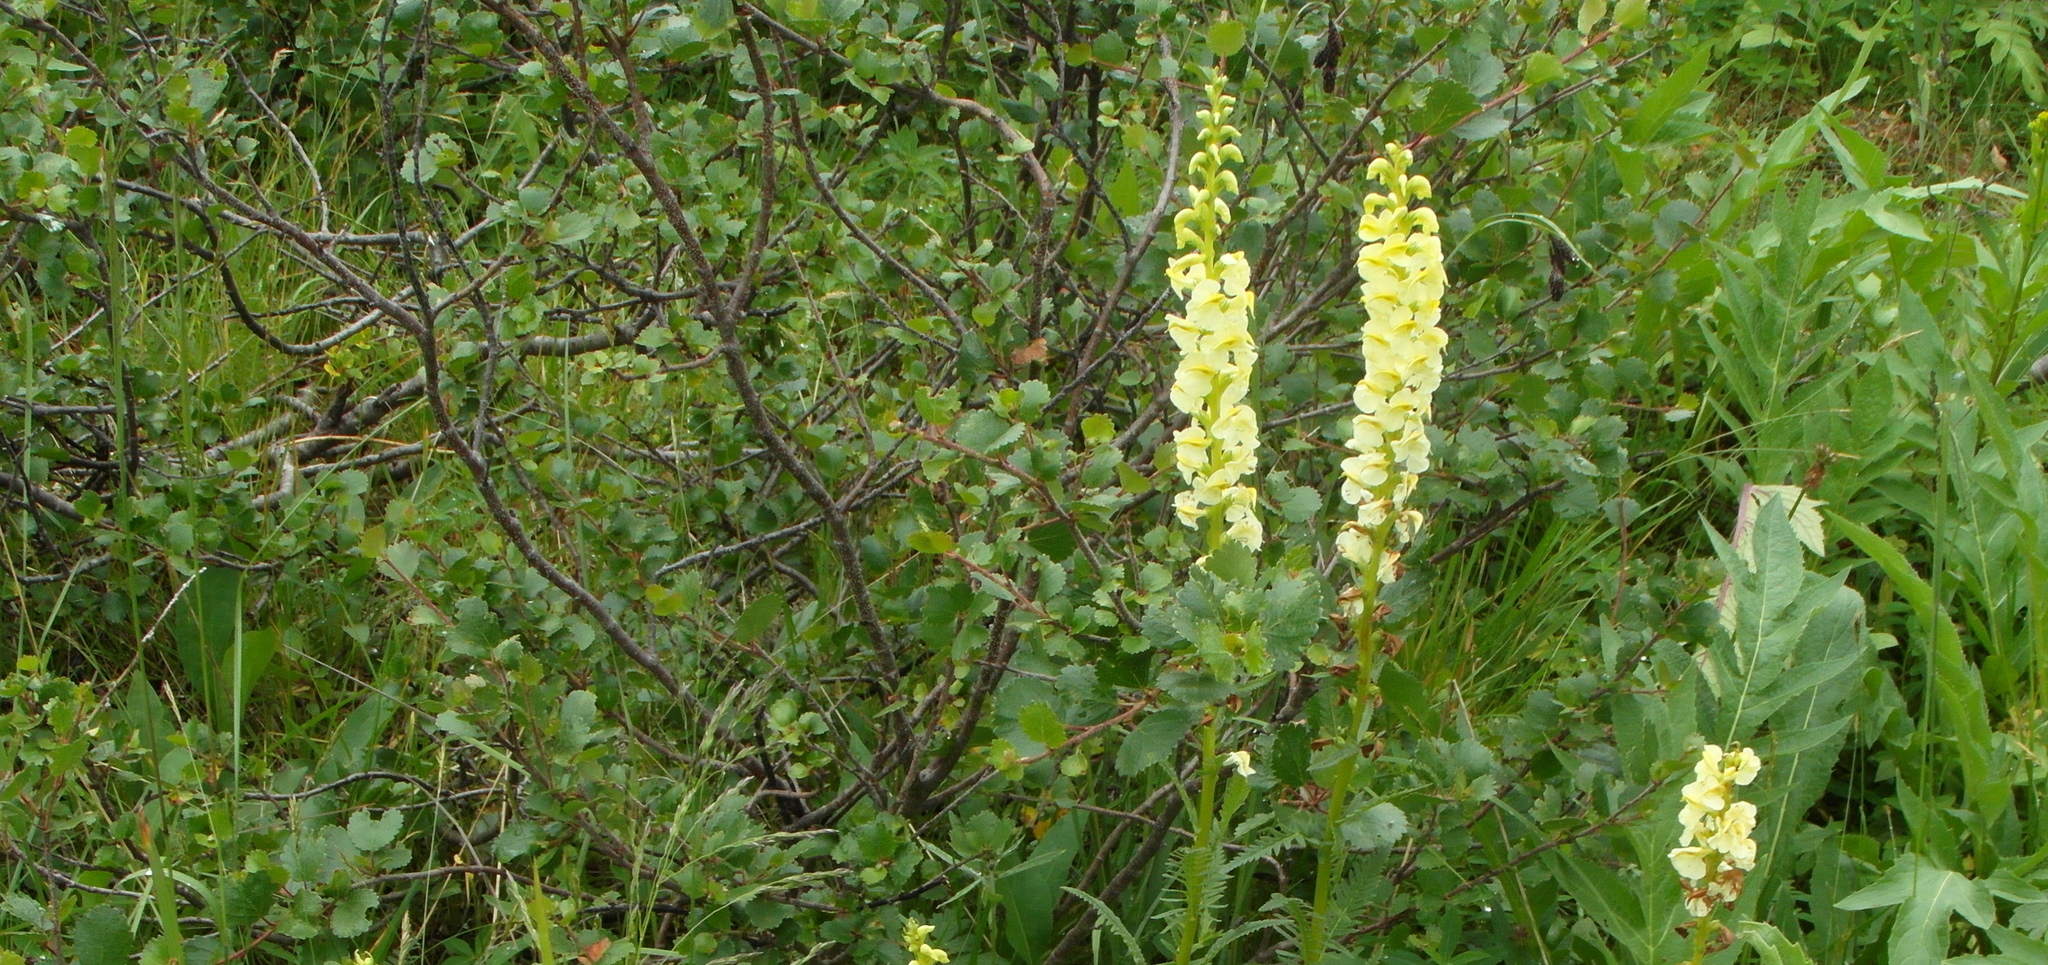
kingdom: Plantae
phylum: Tracheophyta
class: Magnoliopsida
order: Fagales
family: Betulaceae
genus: Betula
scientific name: Betula glandulosa
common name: Dwarf birch
